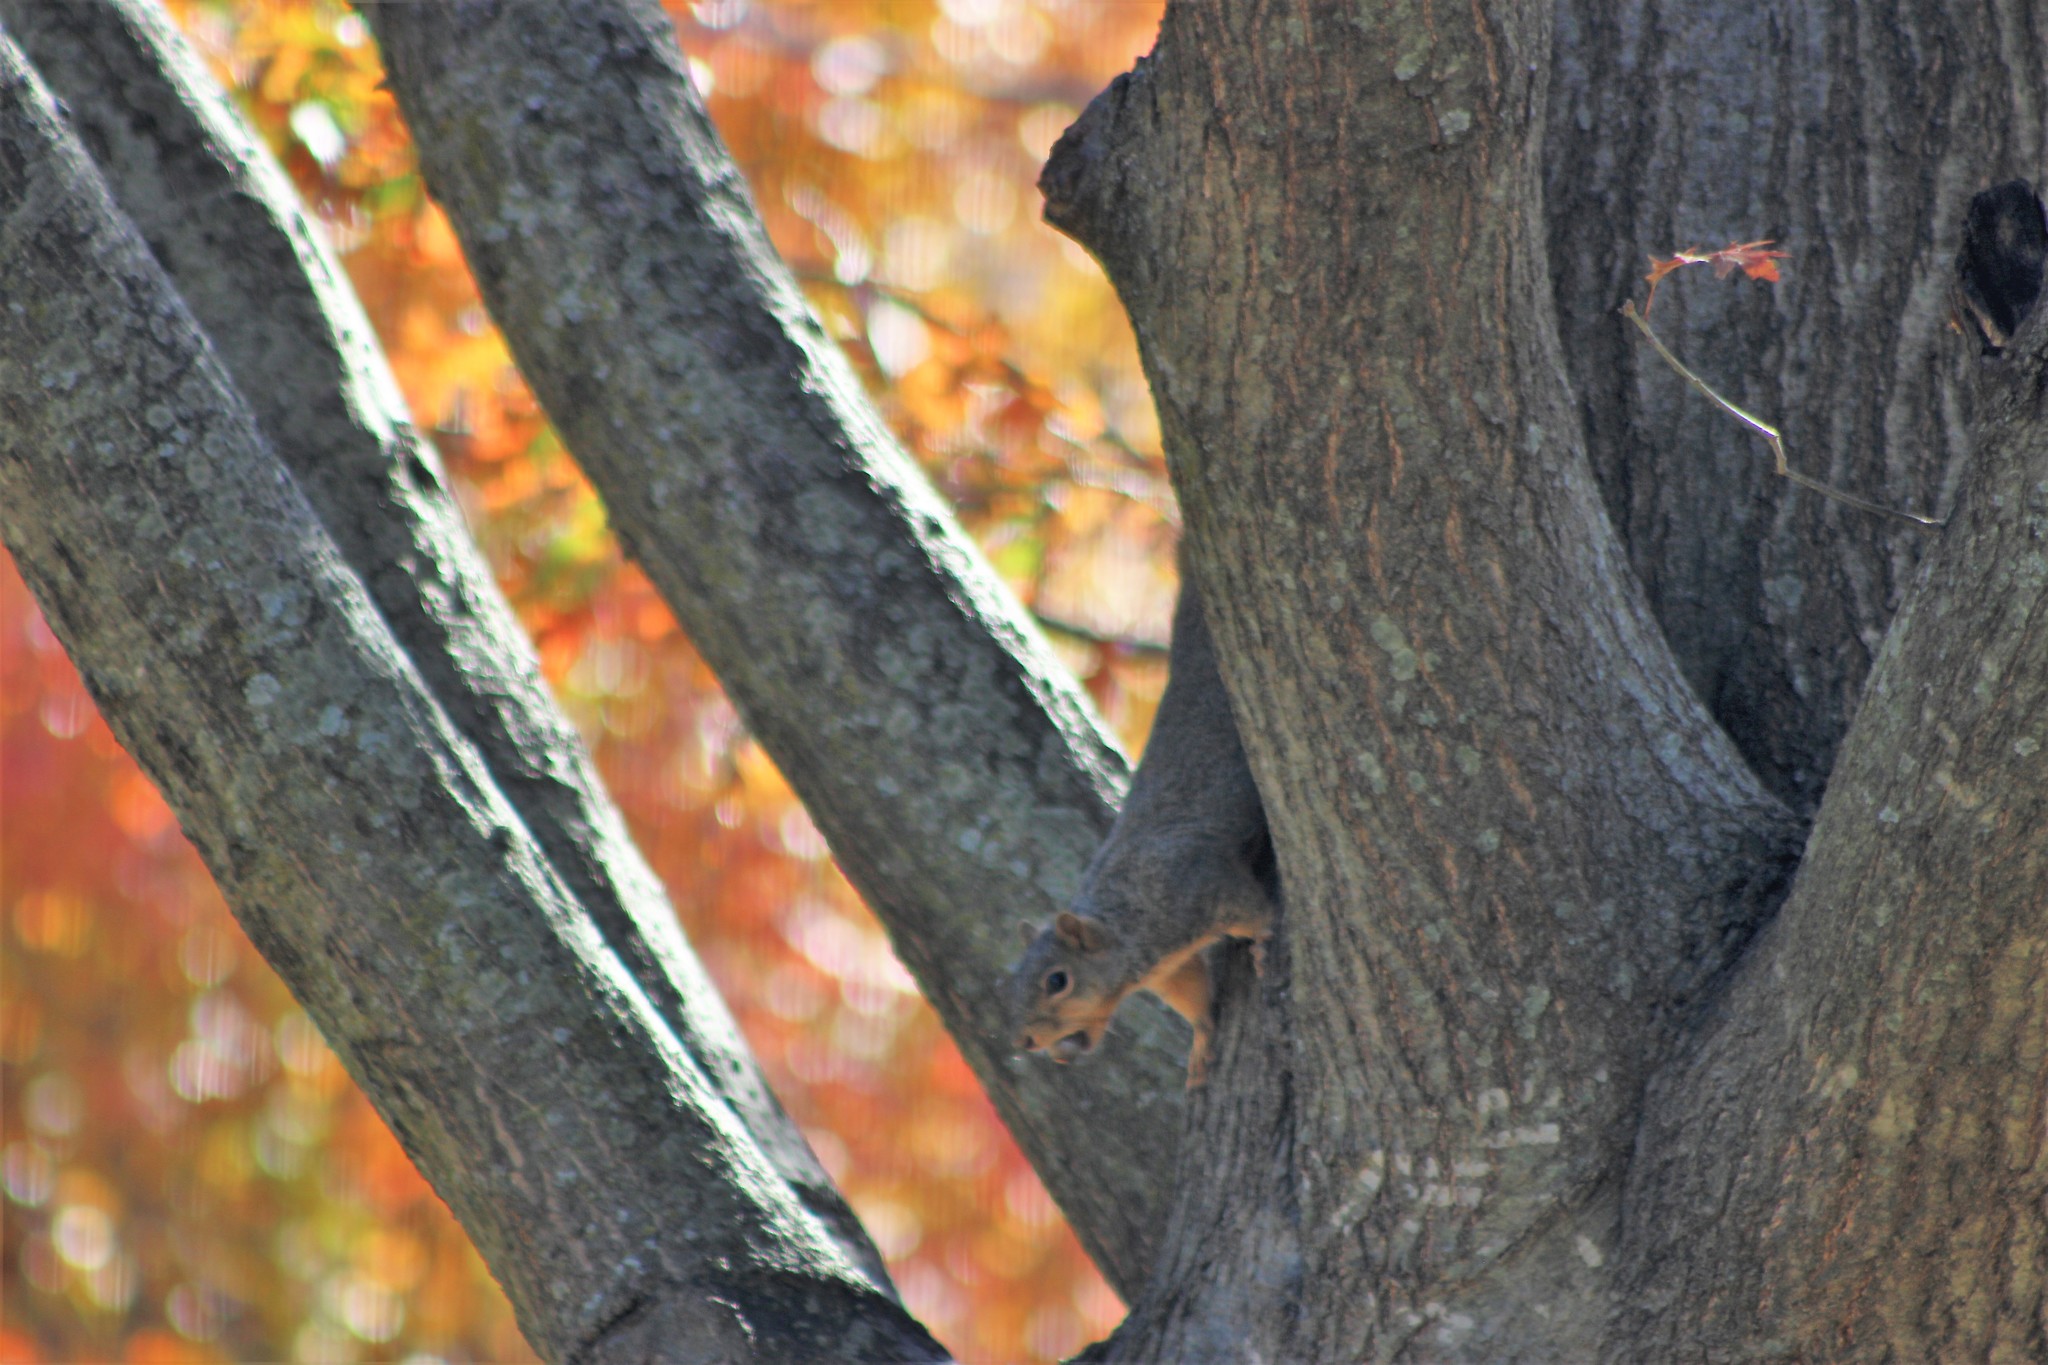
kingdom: Animalia
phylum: Chordata
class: Mammalia
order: Rodentia
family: Sciuridae
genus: Sciurus
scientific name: Sciurus niger
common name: Fox squirrel
